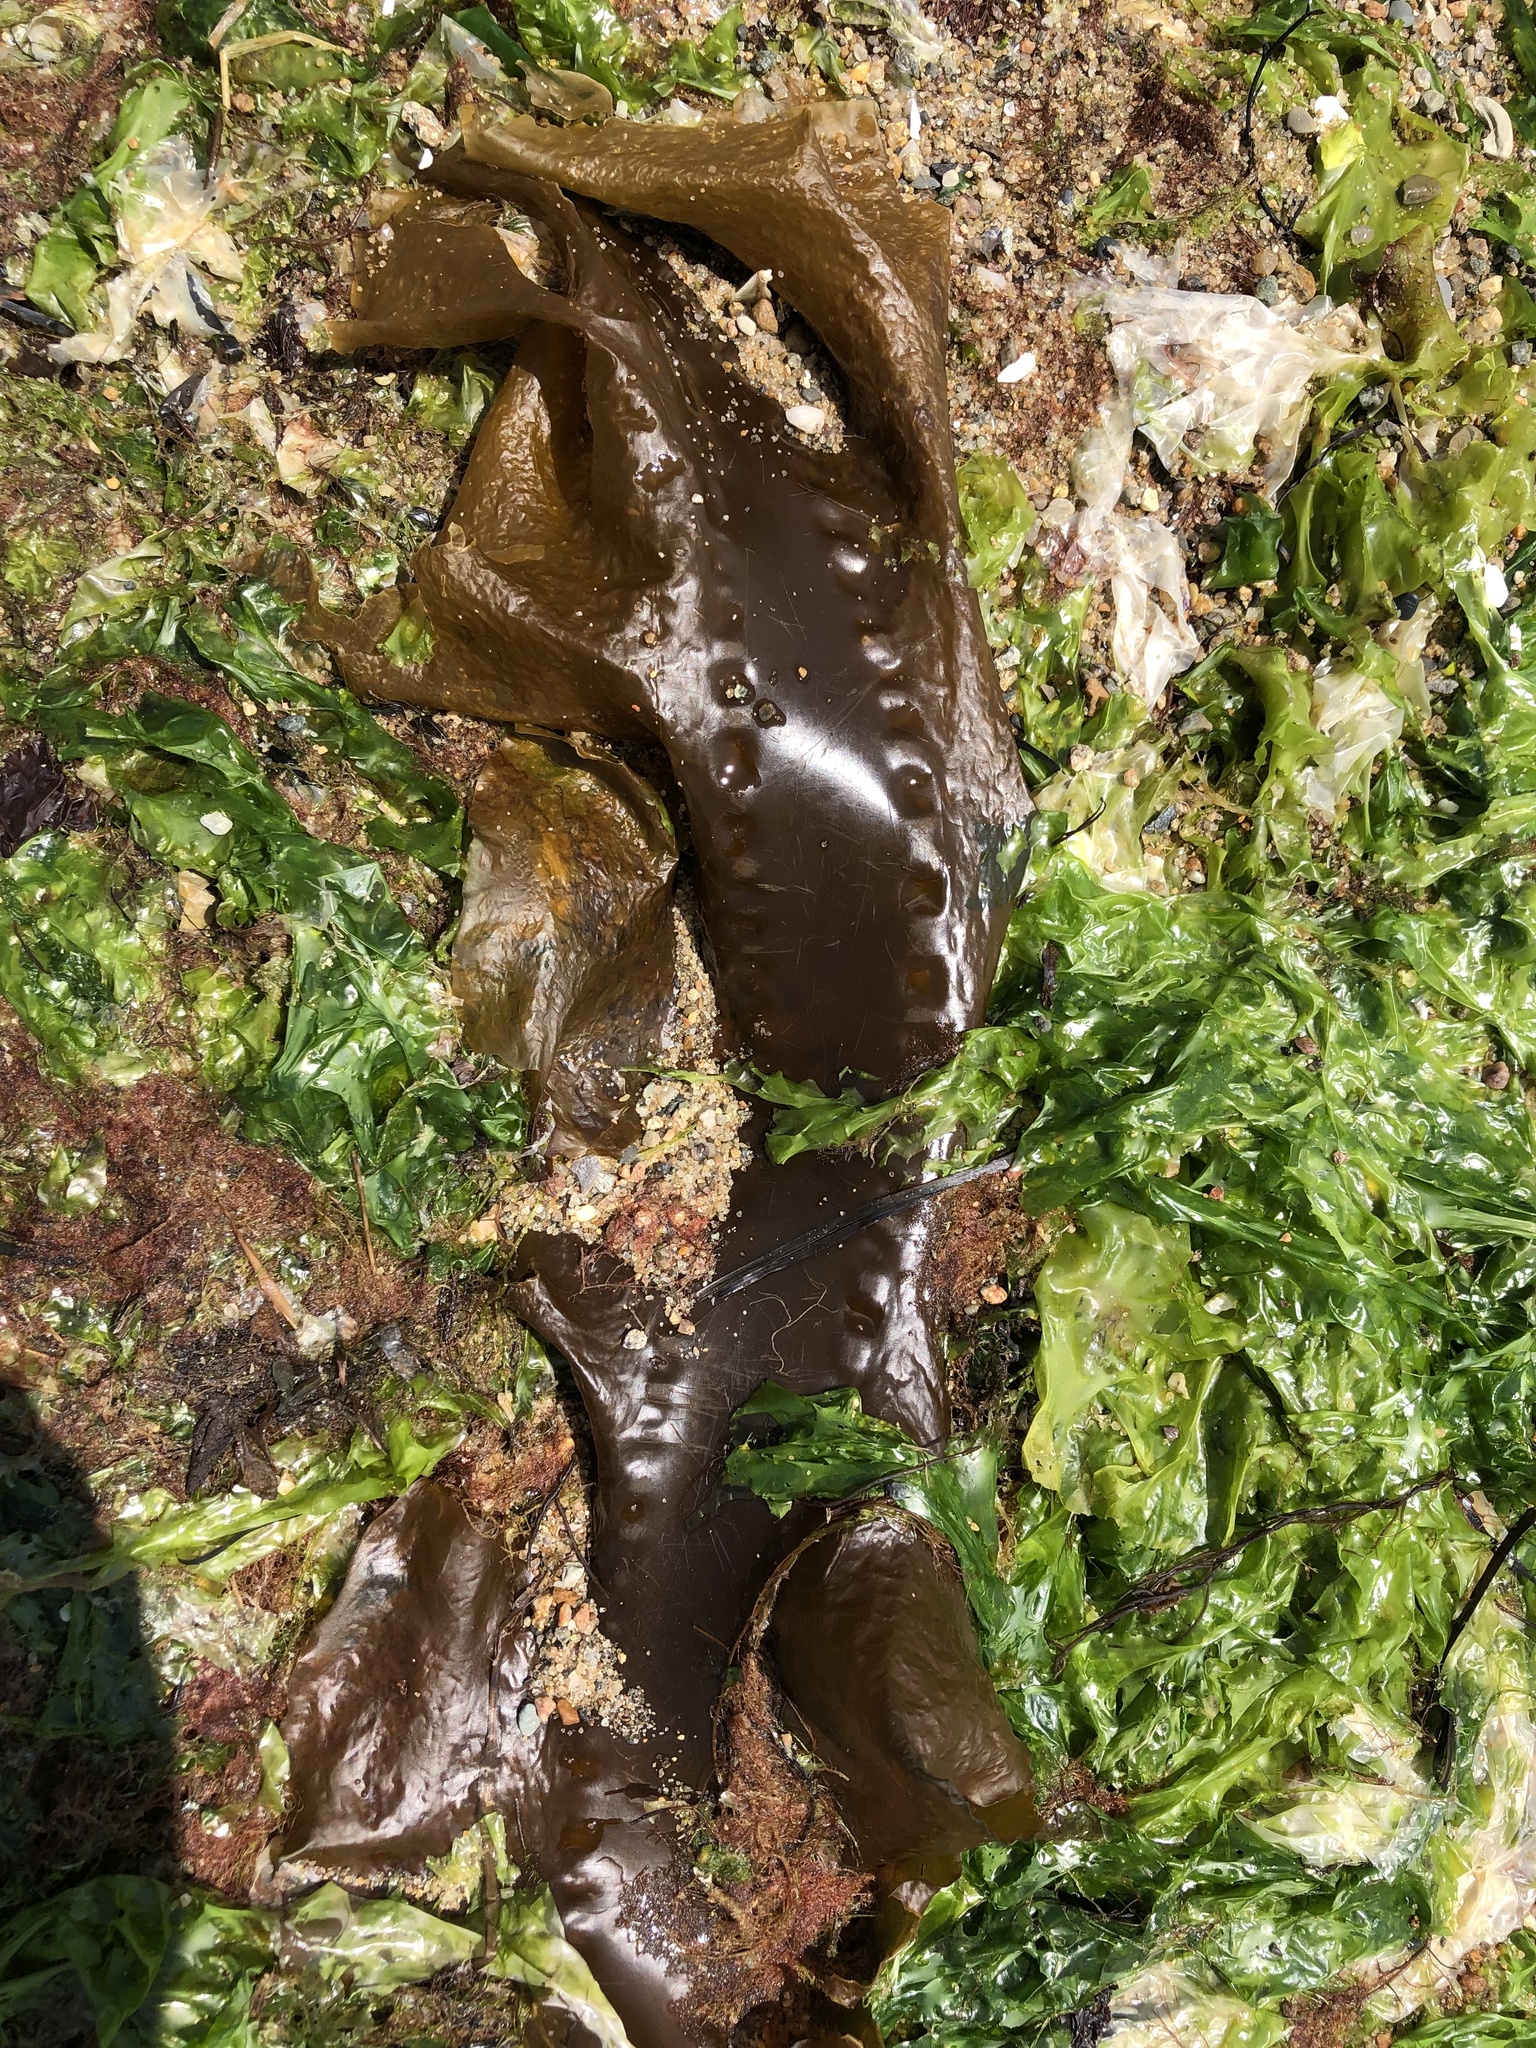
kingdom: Chromista
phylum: Ochrophyta
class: Phaeophyceae
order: Laminariales
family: Laminariaceae
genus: Saccharina
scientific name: Saccharina latissima
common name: Poor man's weather glass
